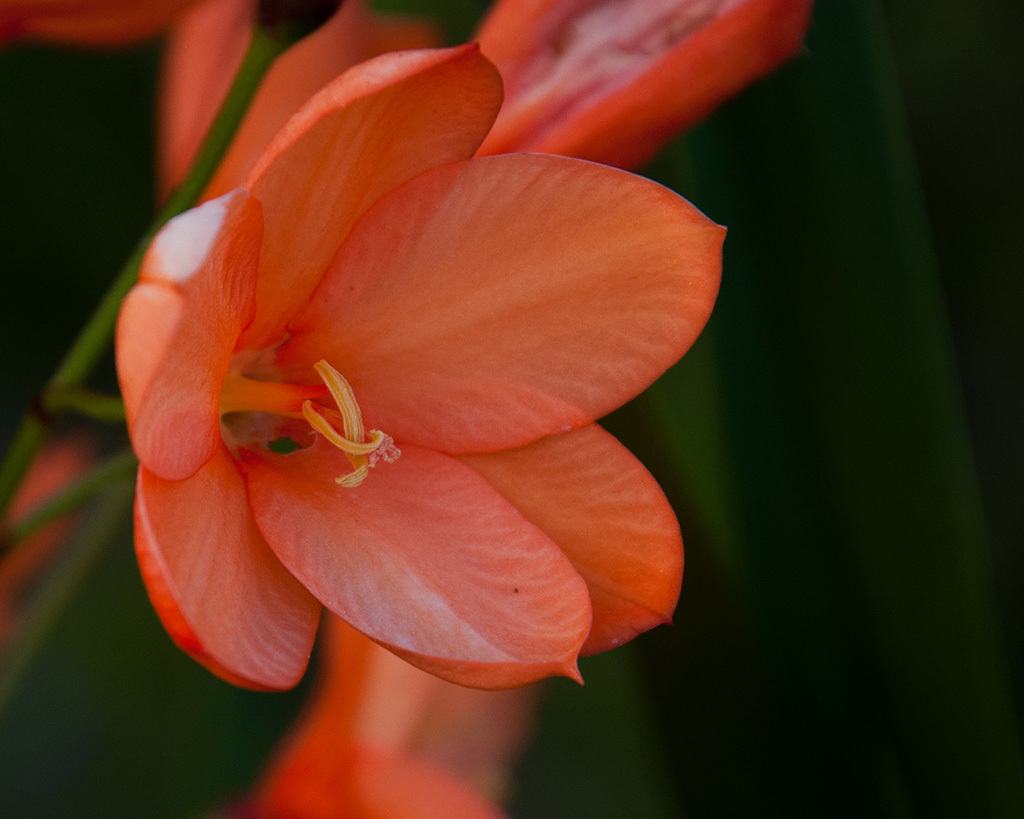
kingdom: Plantae
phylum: Tracheophyta
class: Liliopsida
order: Asparagales
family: Iridaceae
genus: Pillansia
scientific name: Pillansia templemannii
